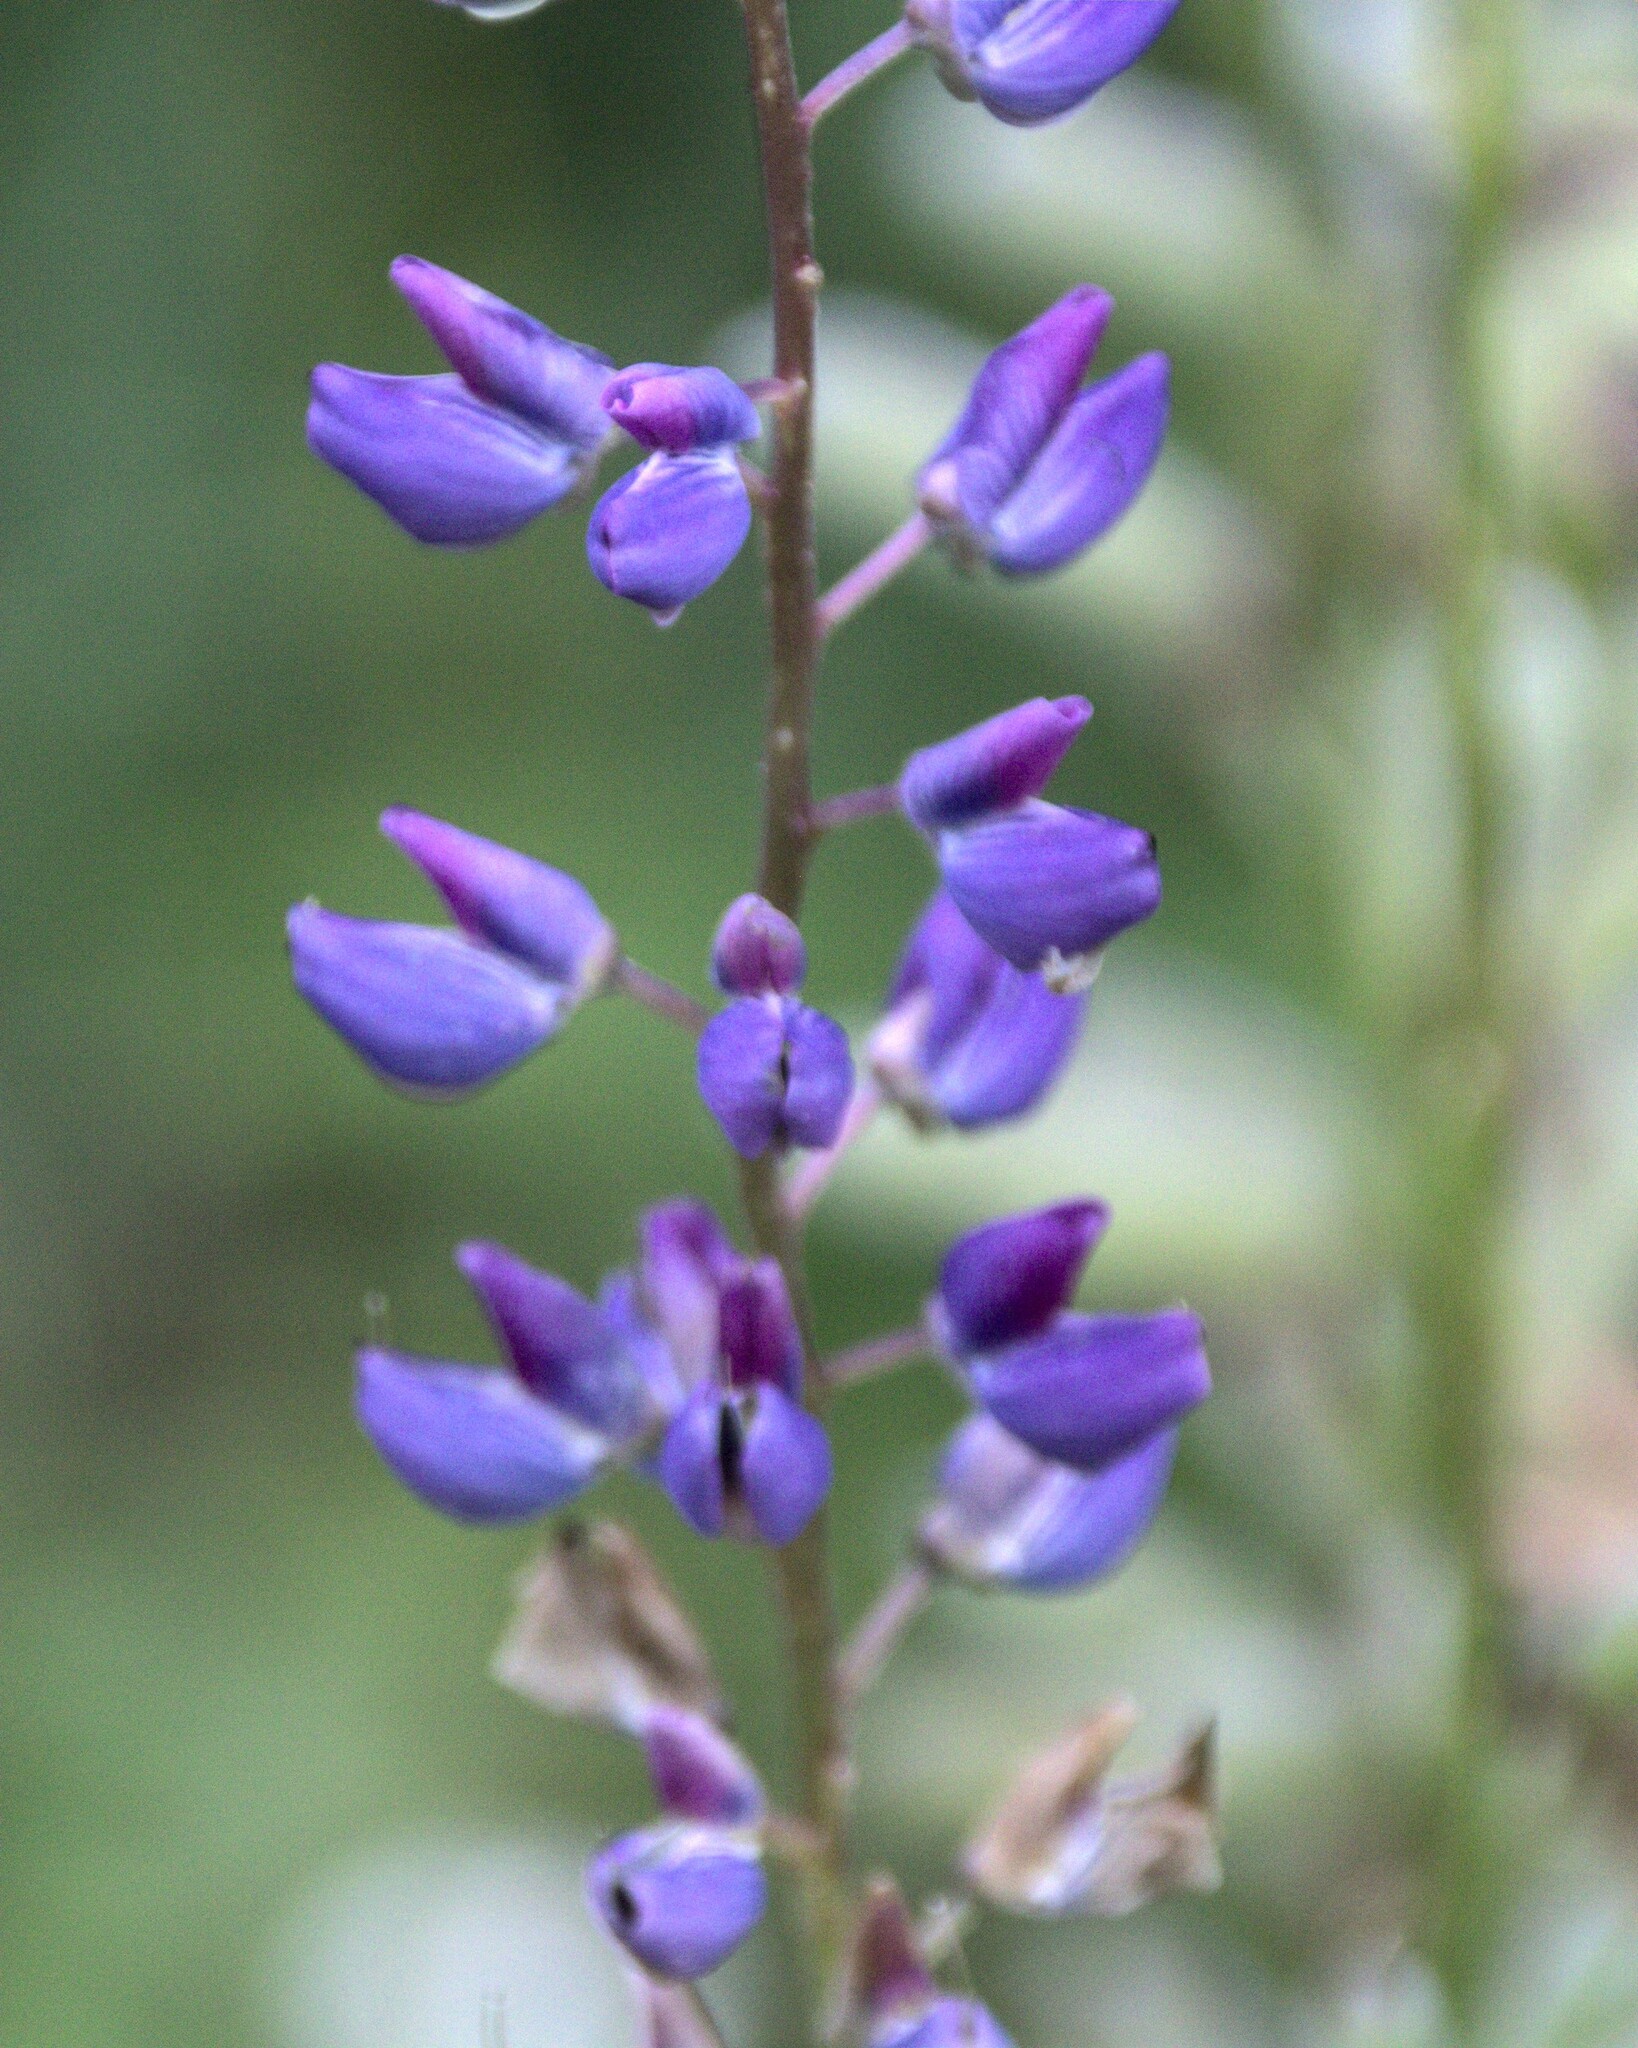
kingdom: Plantae
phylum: Tracheophyta
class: Magnoliopsida
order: Fabales
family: Fabaceae
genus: Lupinus
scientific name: Lupinus polyphyllus
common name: Garden lupin
